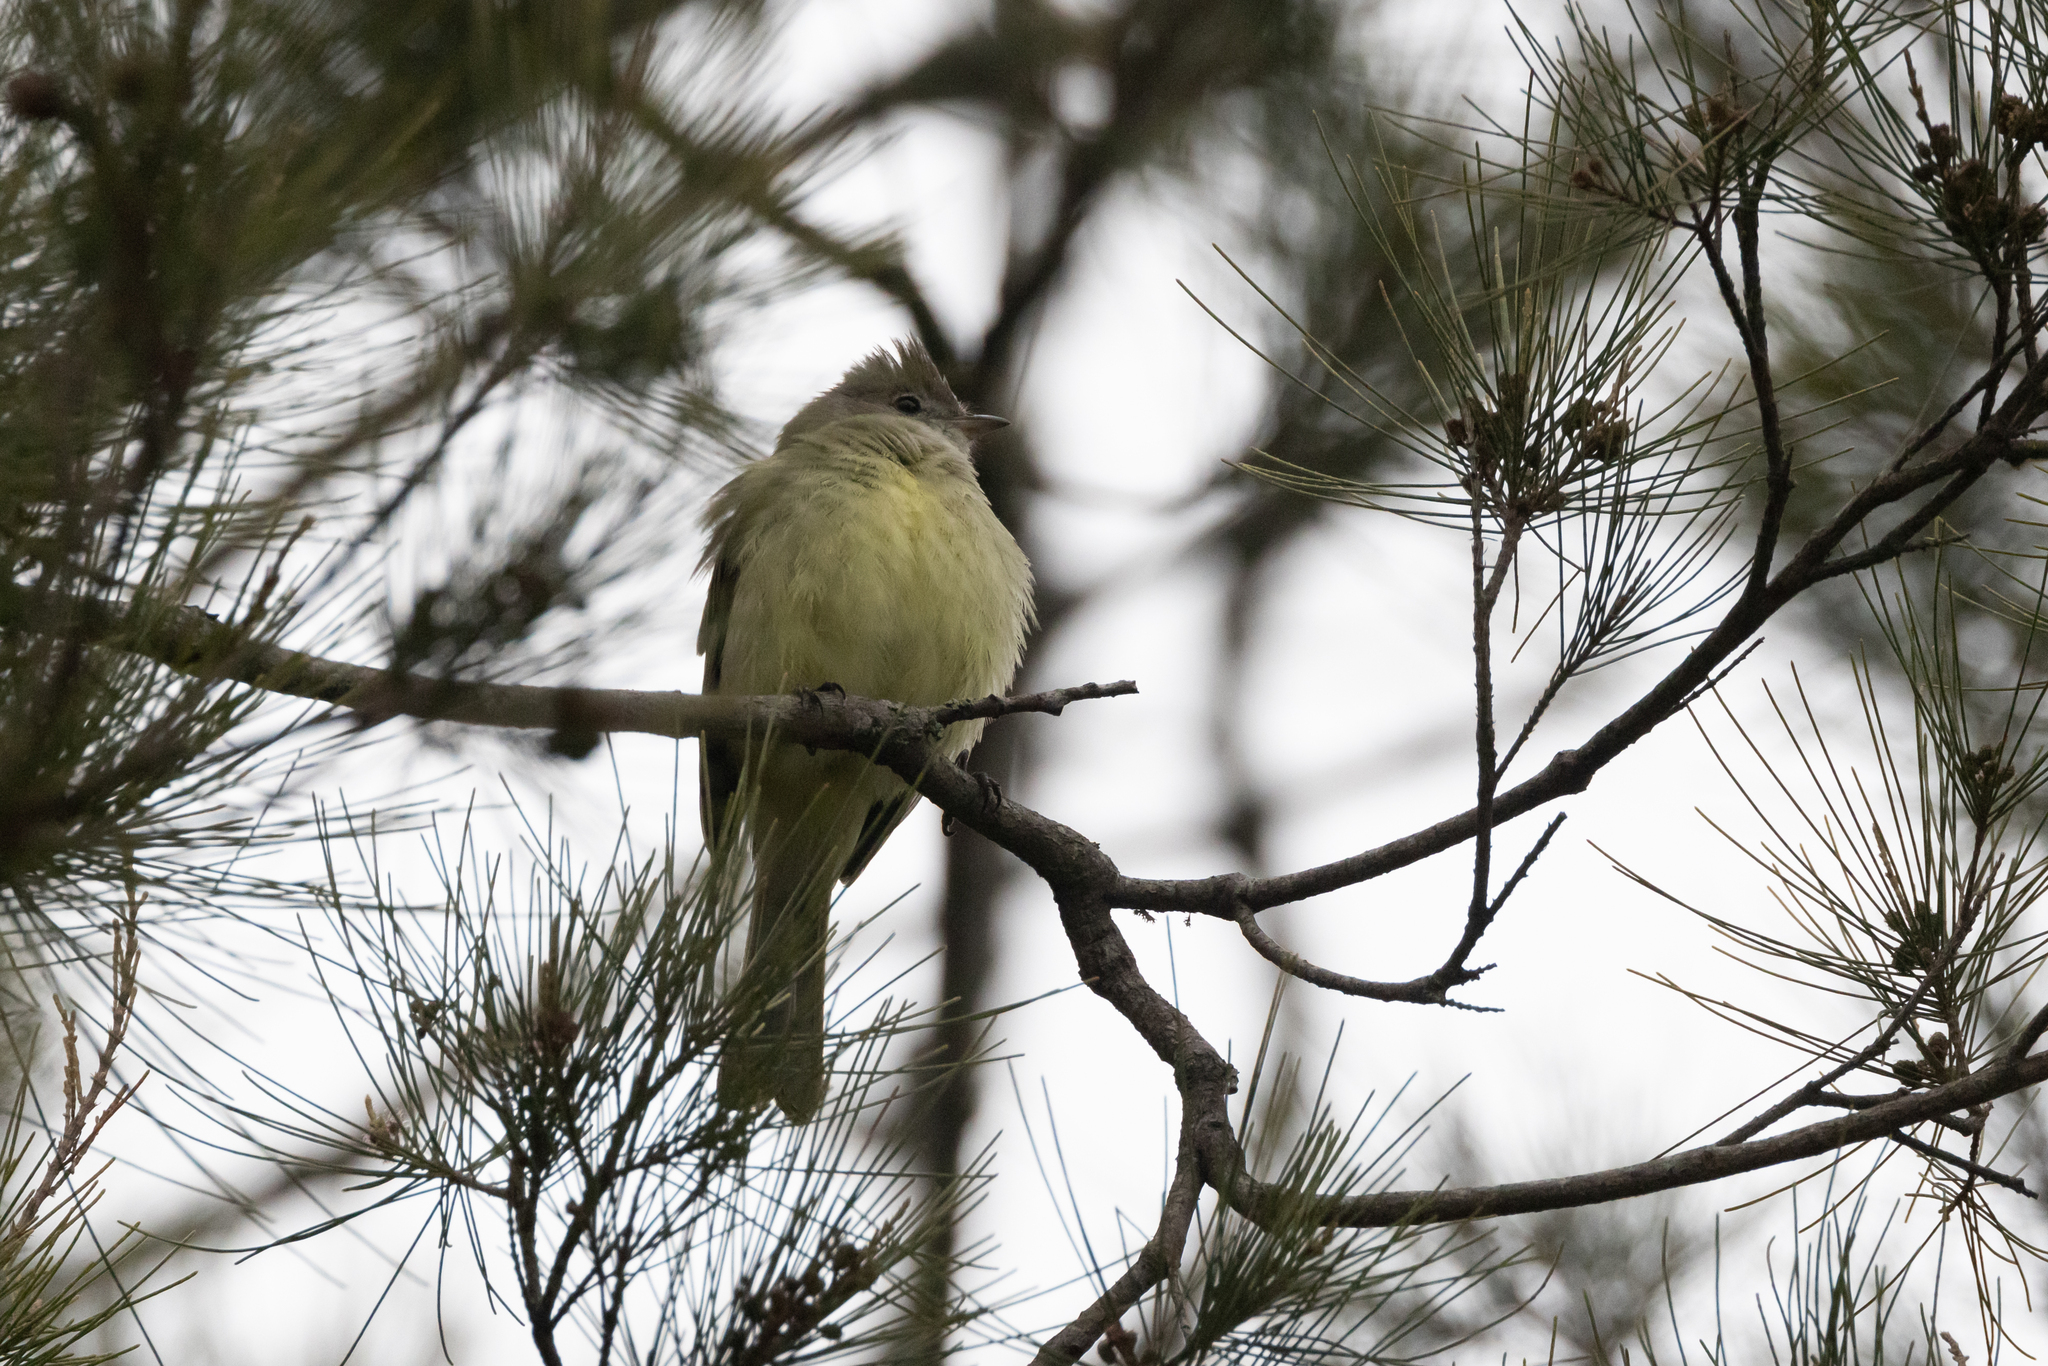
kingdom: Animalia
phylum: Chordata
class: Aves
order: Passeriformes
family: Tyrannidae
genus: Elaenia
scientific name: Elaenia flavogaster
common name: Yellow-bellied elaenia
